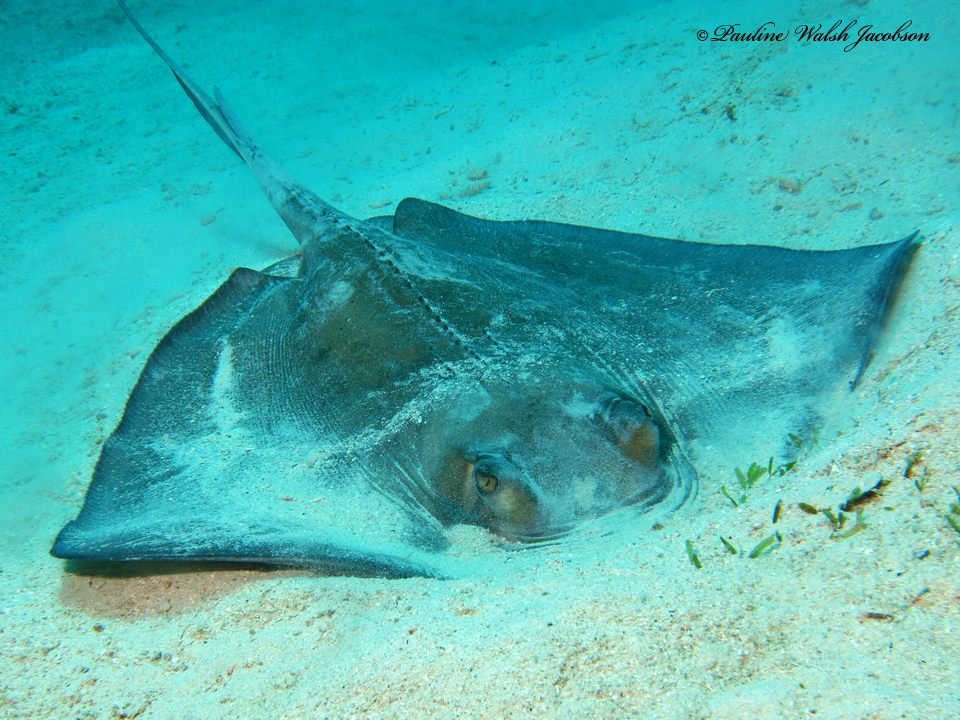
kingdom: Animalia
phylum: Chordata
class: Elasmobranchii
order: Myliobatiformes
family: Dasyatidae
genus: Hypanus
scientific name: Hypanus americanus
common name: Southern stingray
